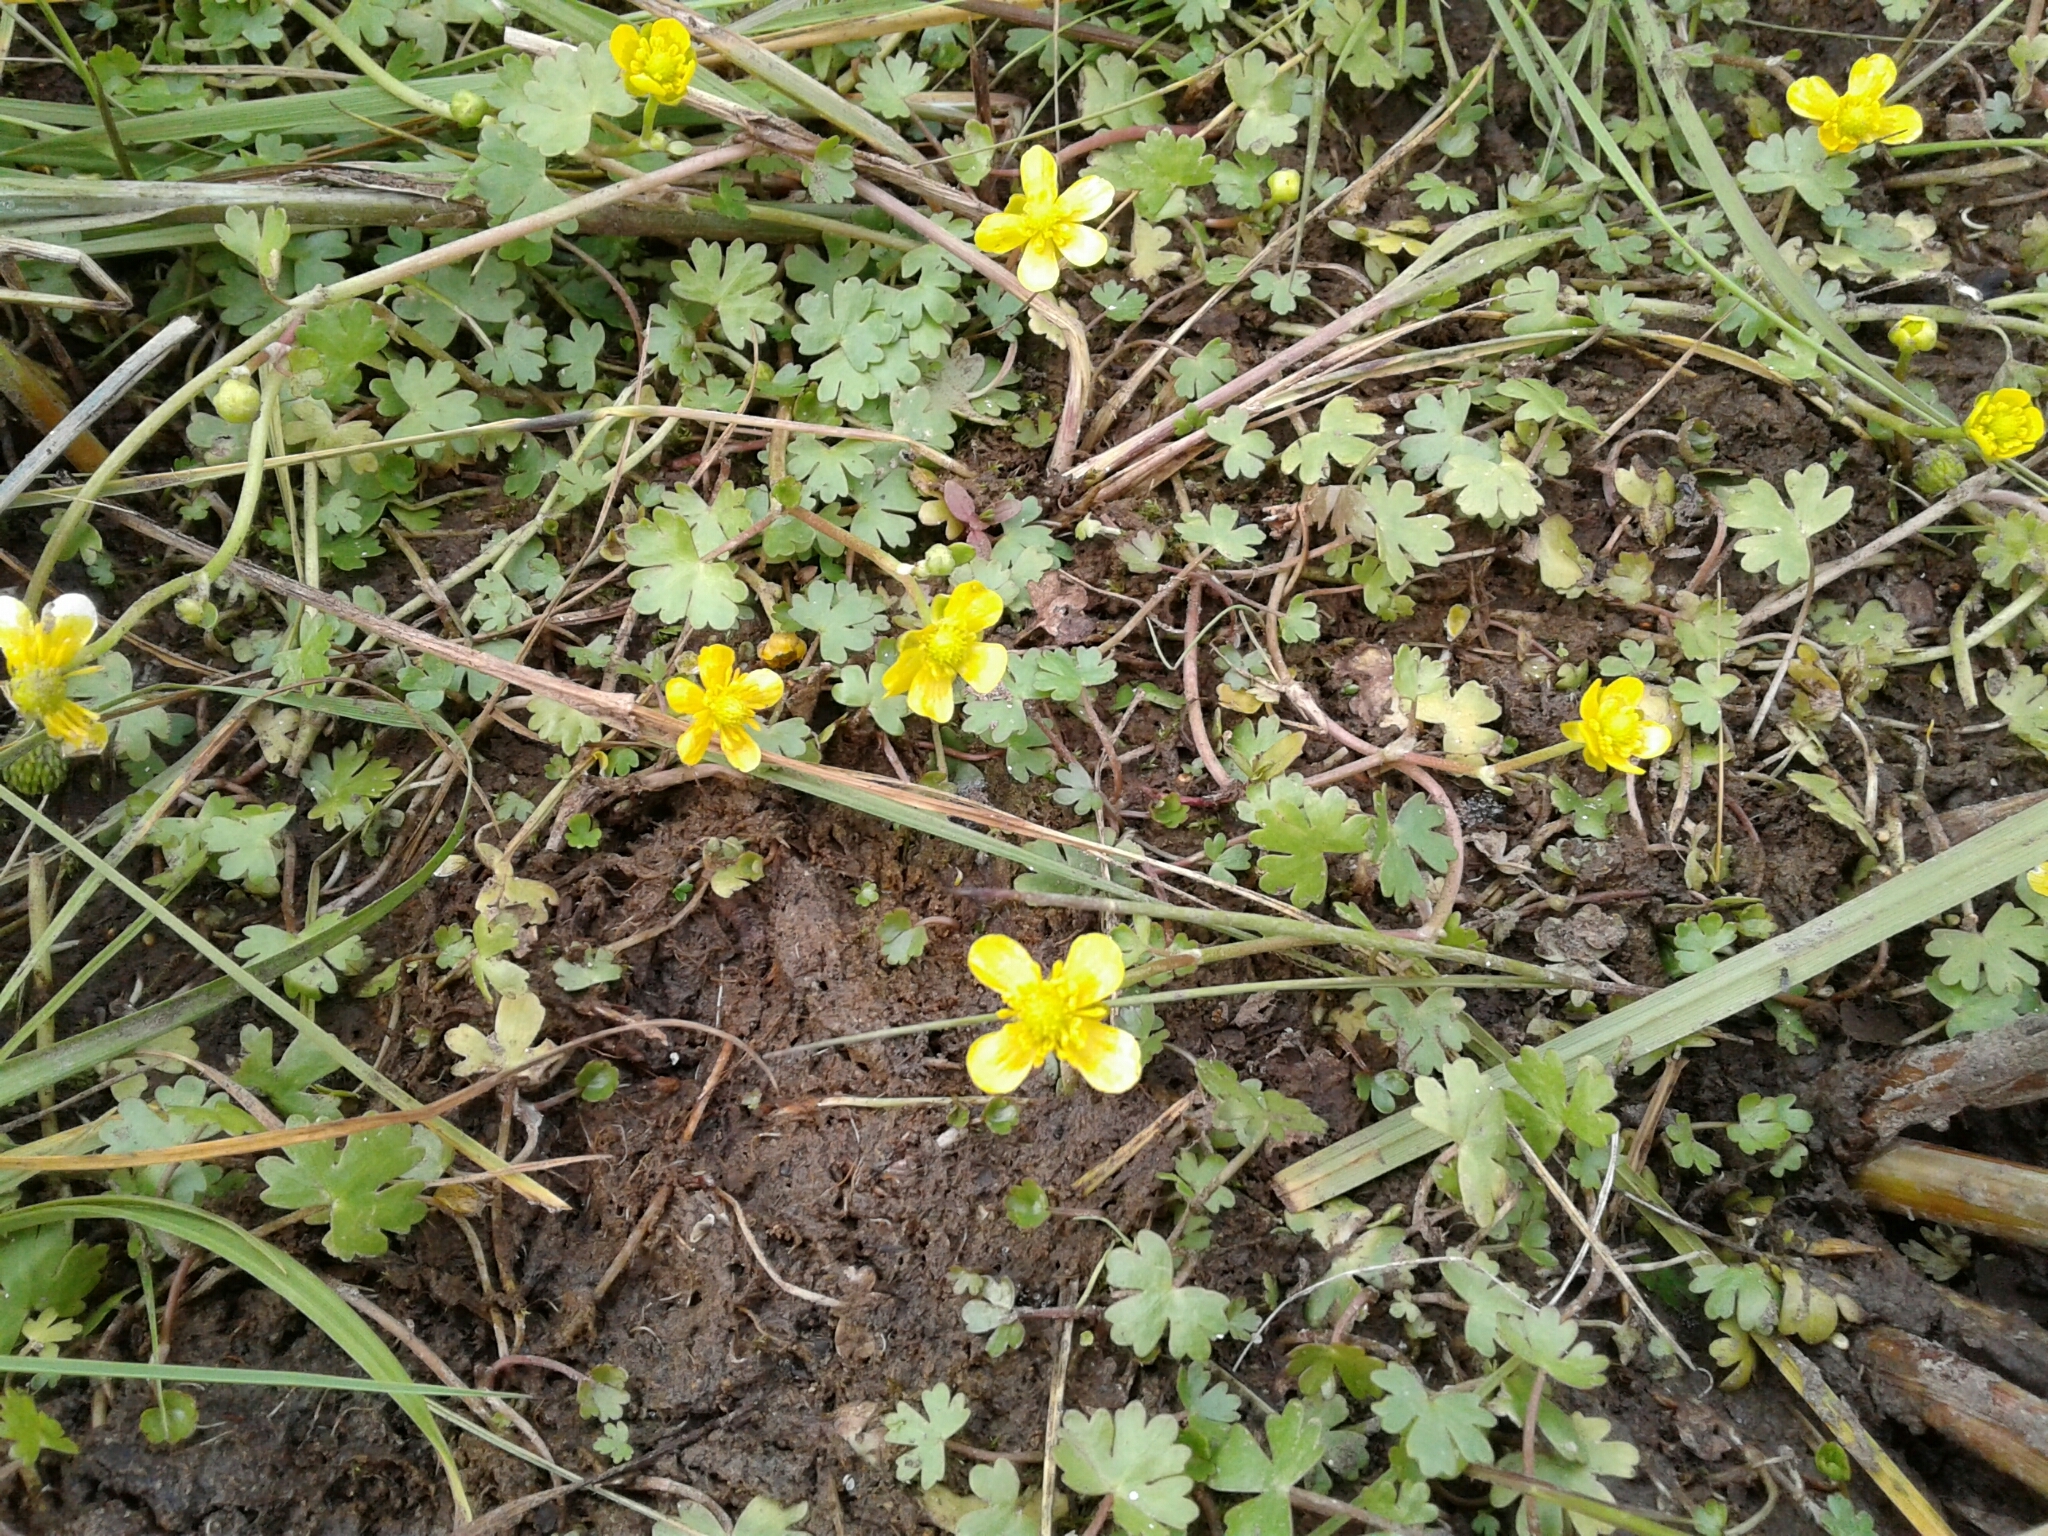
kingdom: Plantae
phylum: Tracheophyta
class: Magnoliopsida
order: Ranunculales
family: Ranunculaceae
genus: Ranunculus
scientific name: Ranunculus gmelinii
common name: Gmelin's buttercup
